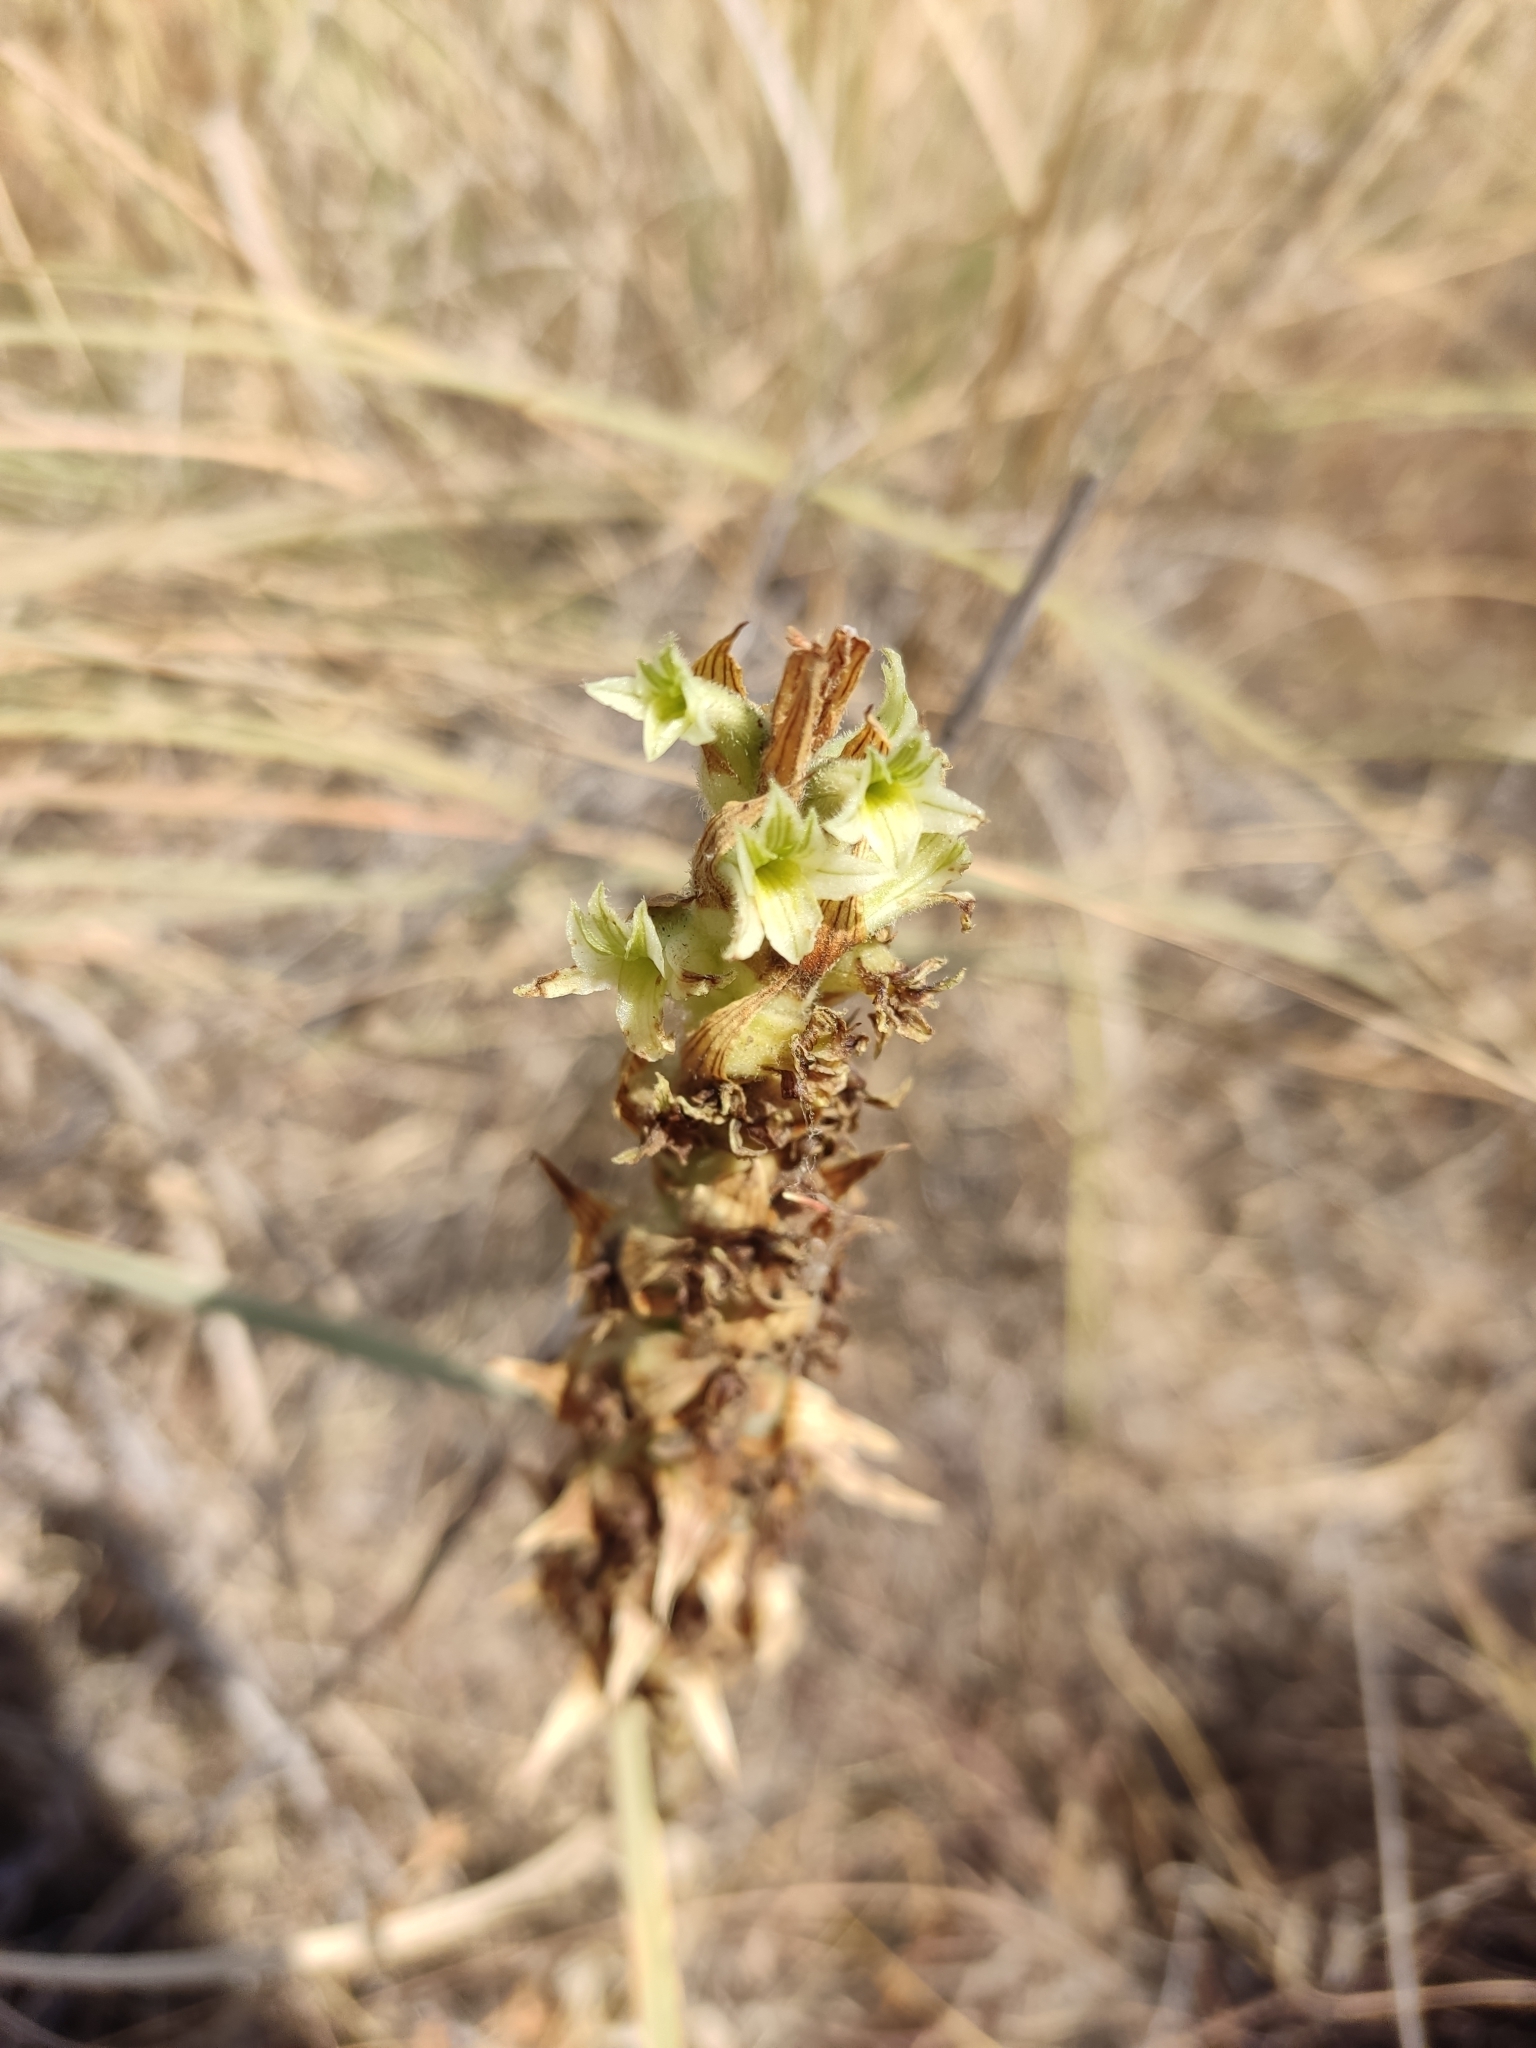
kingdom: Plantae
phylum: Tracheophyta
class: Liliopsida
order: Asparagales
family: Orchidaceae
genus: Dichromanthus
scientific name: Dichromanthus michuacanus
